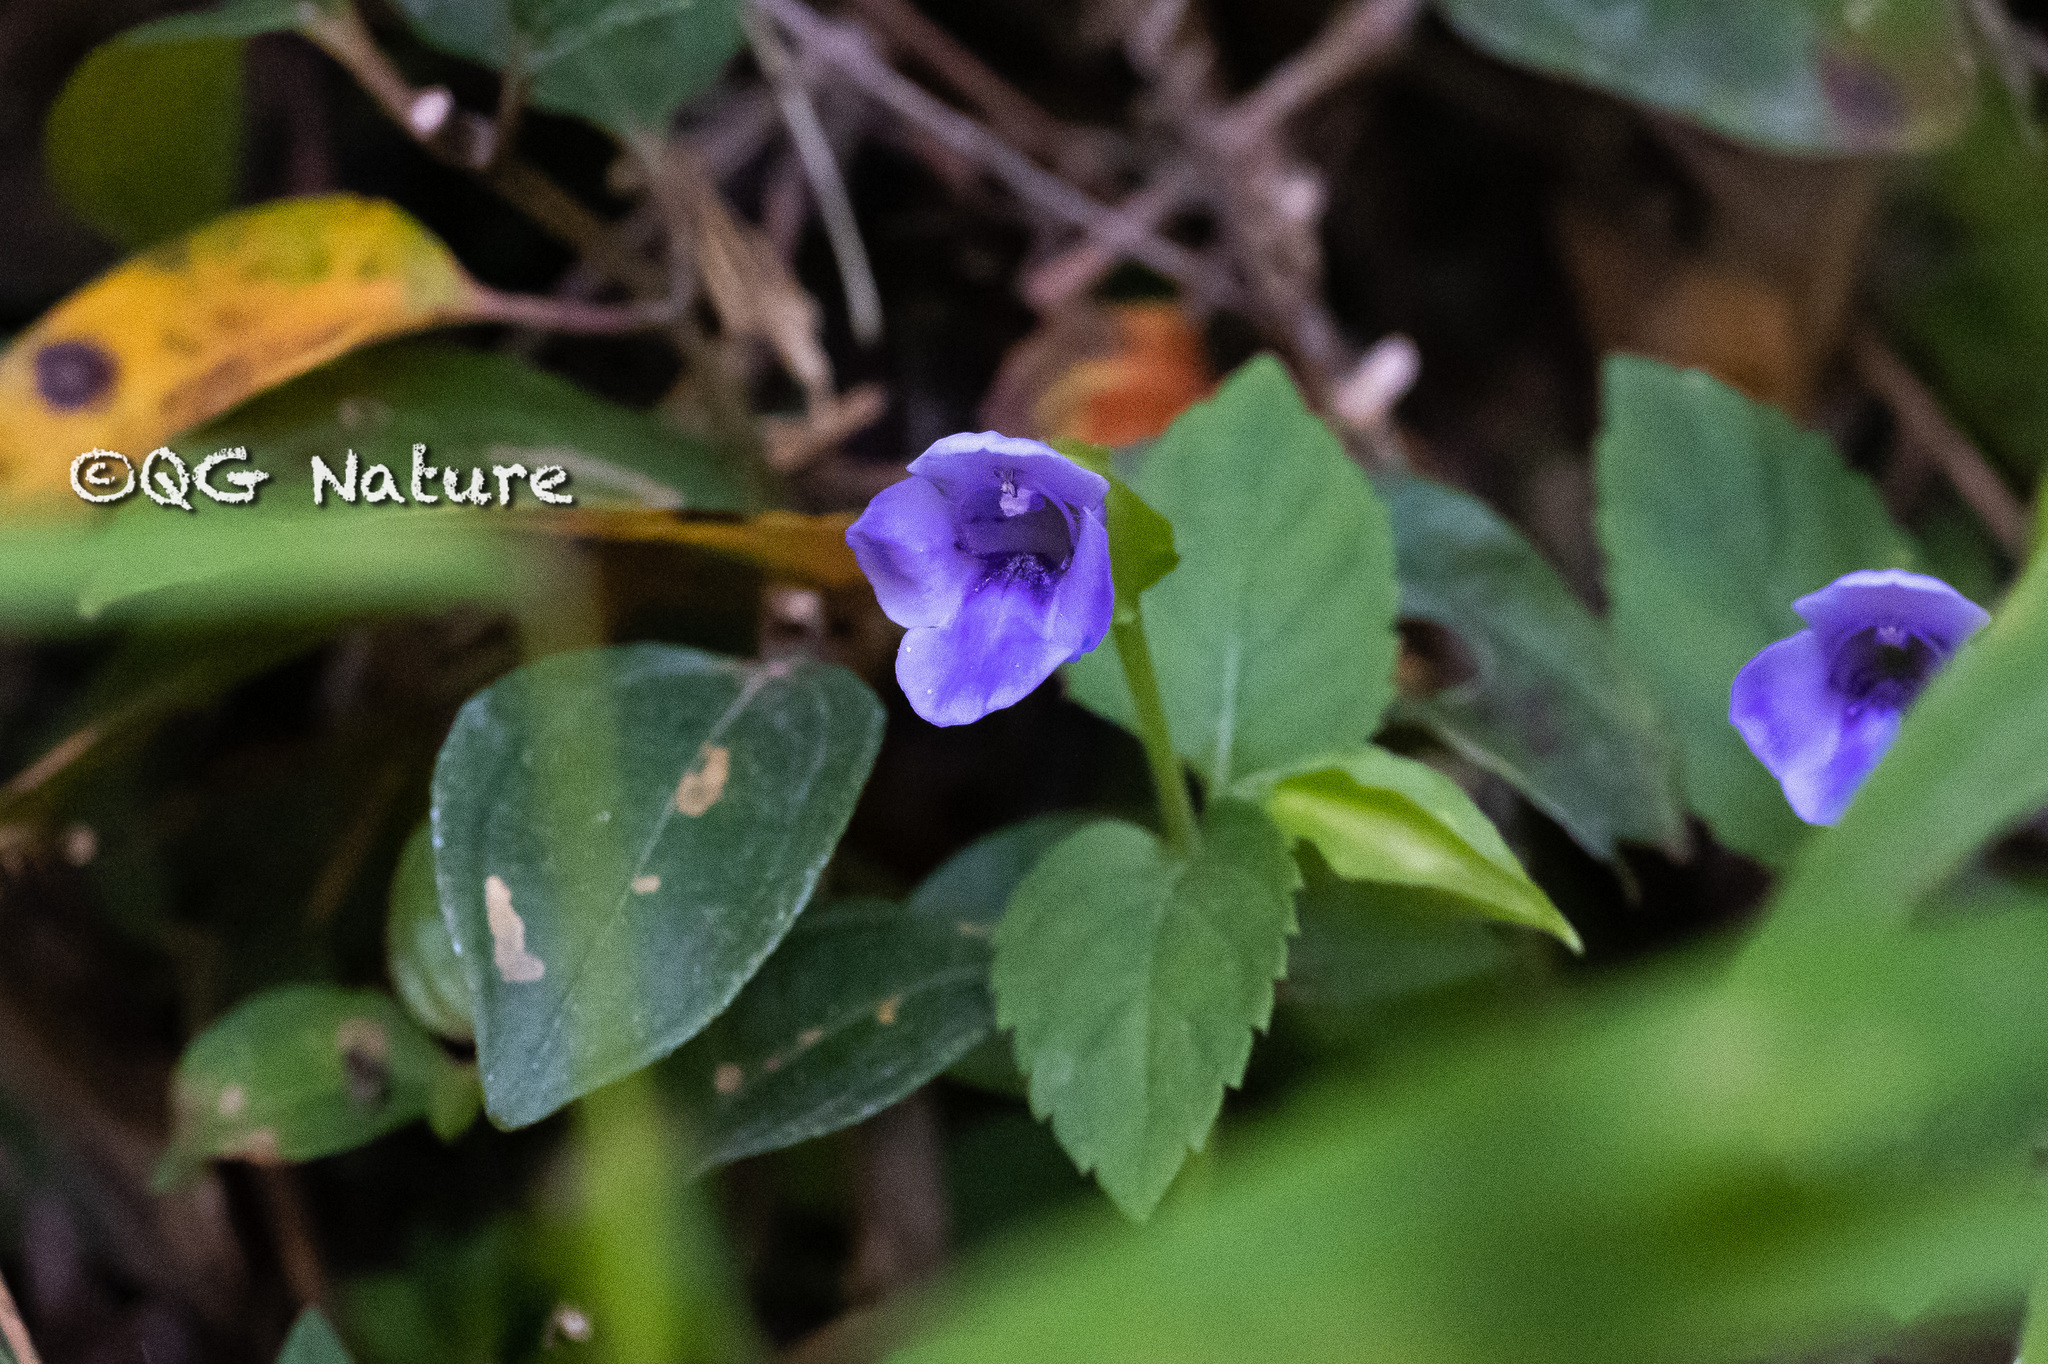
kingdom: Plantae
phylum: Tracheophyta
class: Magnoliopsida
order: Lamiales
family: Linderniaceae
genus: Torenia
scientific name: Torenia asiatica
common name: Wishbone flower
